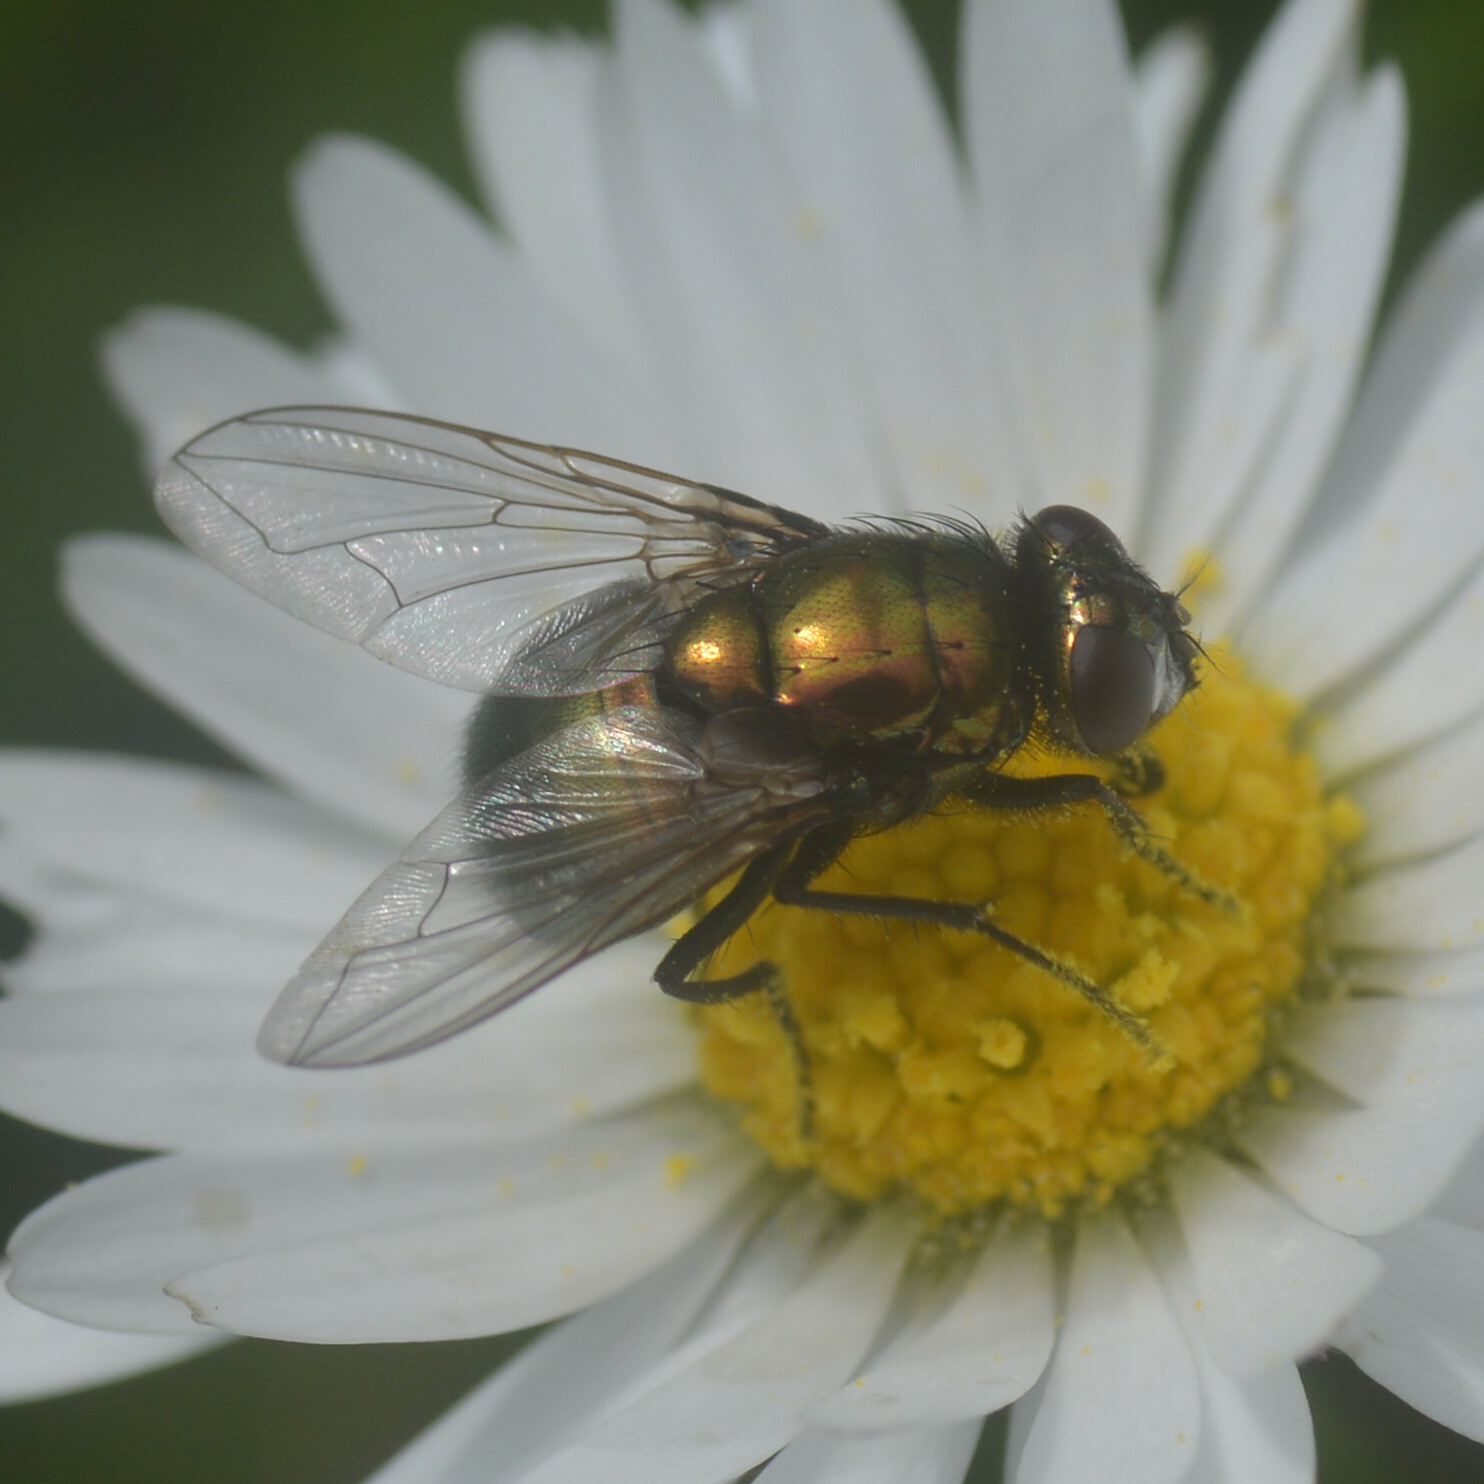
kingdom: Animalia
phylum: Arthropoda
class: Insecta
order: Diptera
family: Muscidae
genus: Neomyia
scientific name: Neomyia cornicina
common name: House fly
